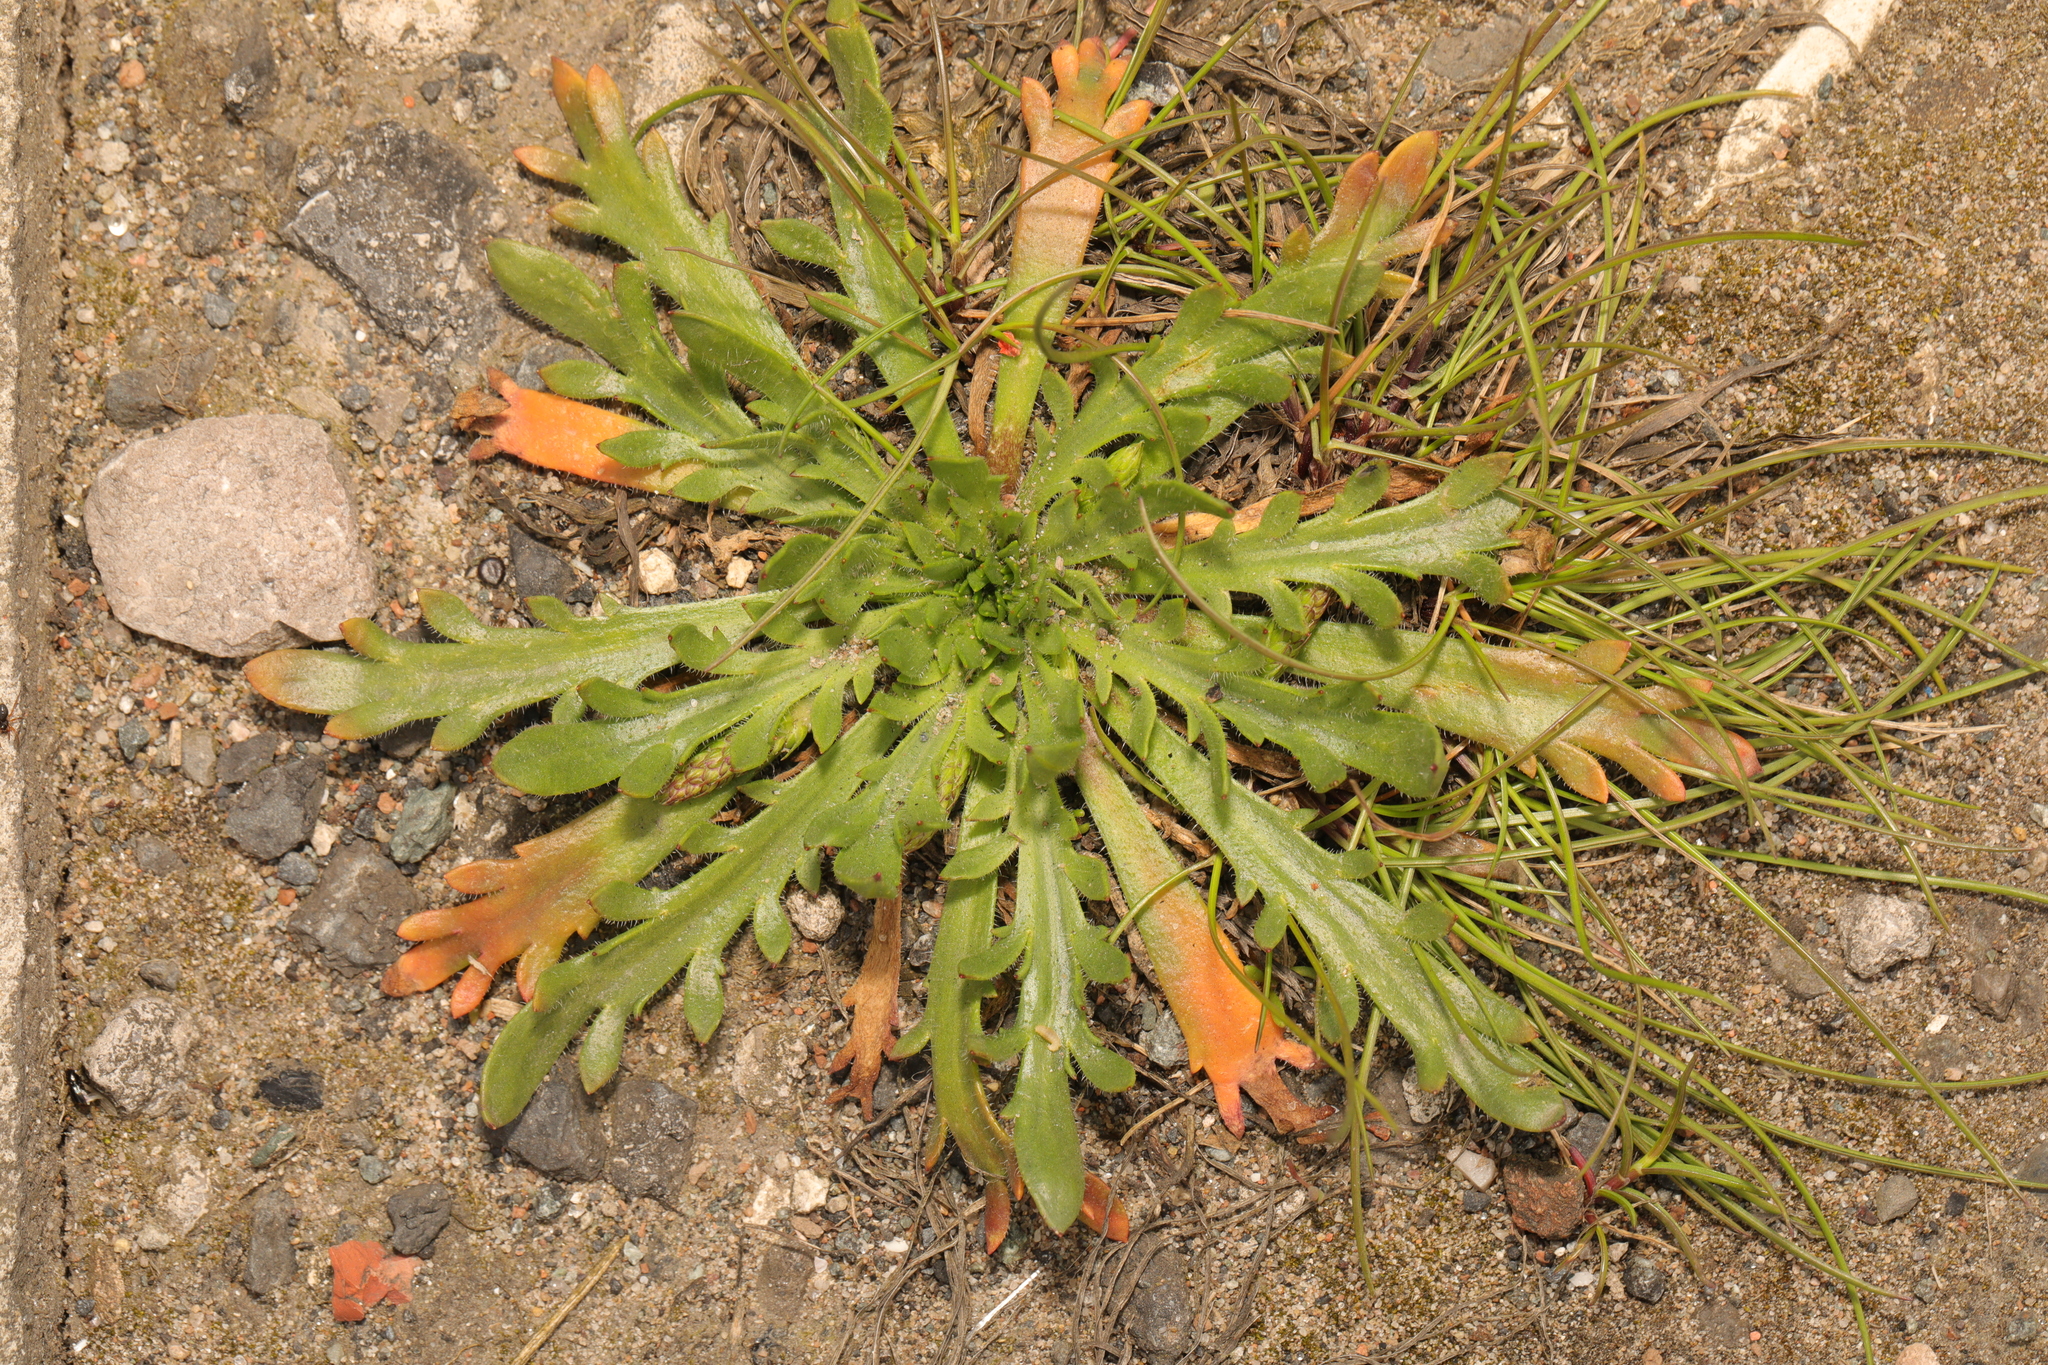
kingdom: Plantae
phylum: Tracheophyta
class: Magnoliopsida
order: Lamiales
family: Plantaginaceae
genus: Plantago
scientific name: Plantago coronopus
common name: Buck's-horn plantain
